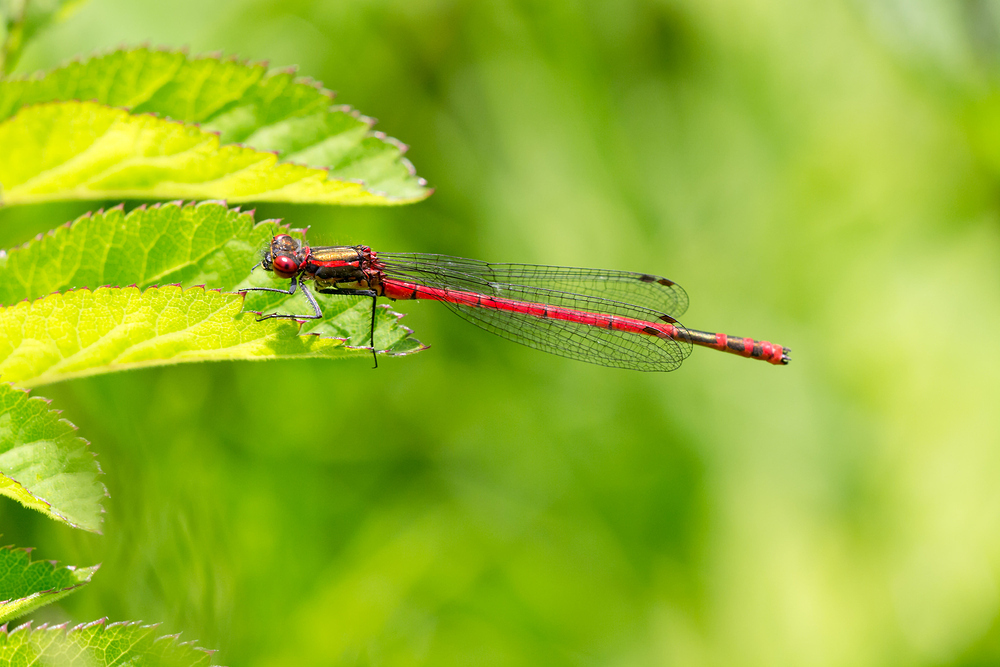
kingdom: Animalia
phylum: Arthropoda
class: Insecta
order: Odonata
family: Coenagrionidae
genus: Pyrrhosoma
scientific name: Pyrrhosoma nymphula
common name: Large red damsel
